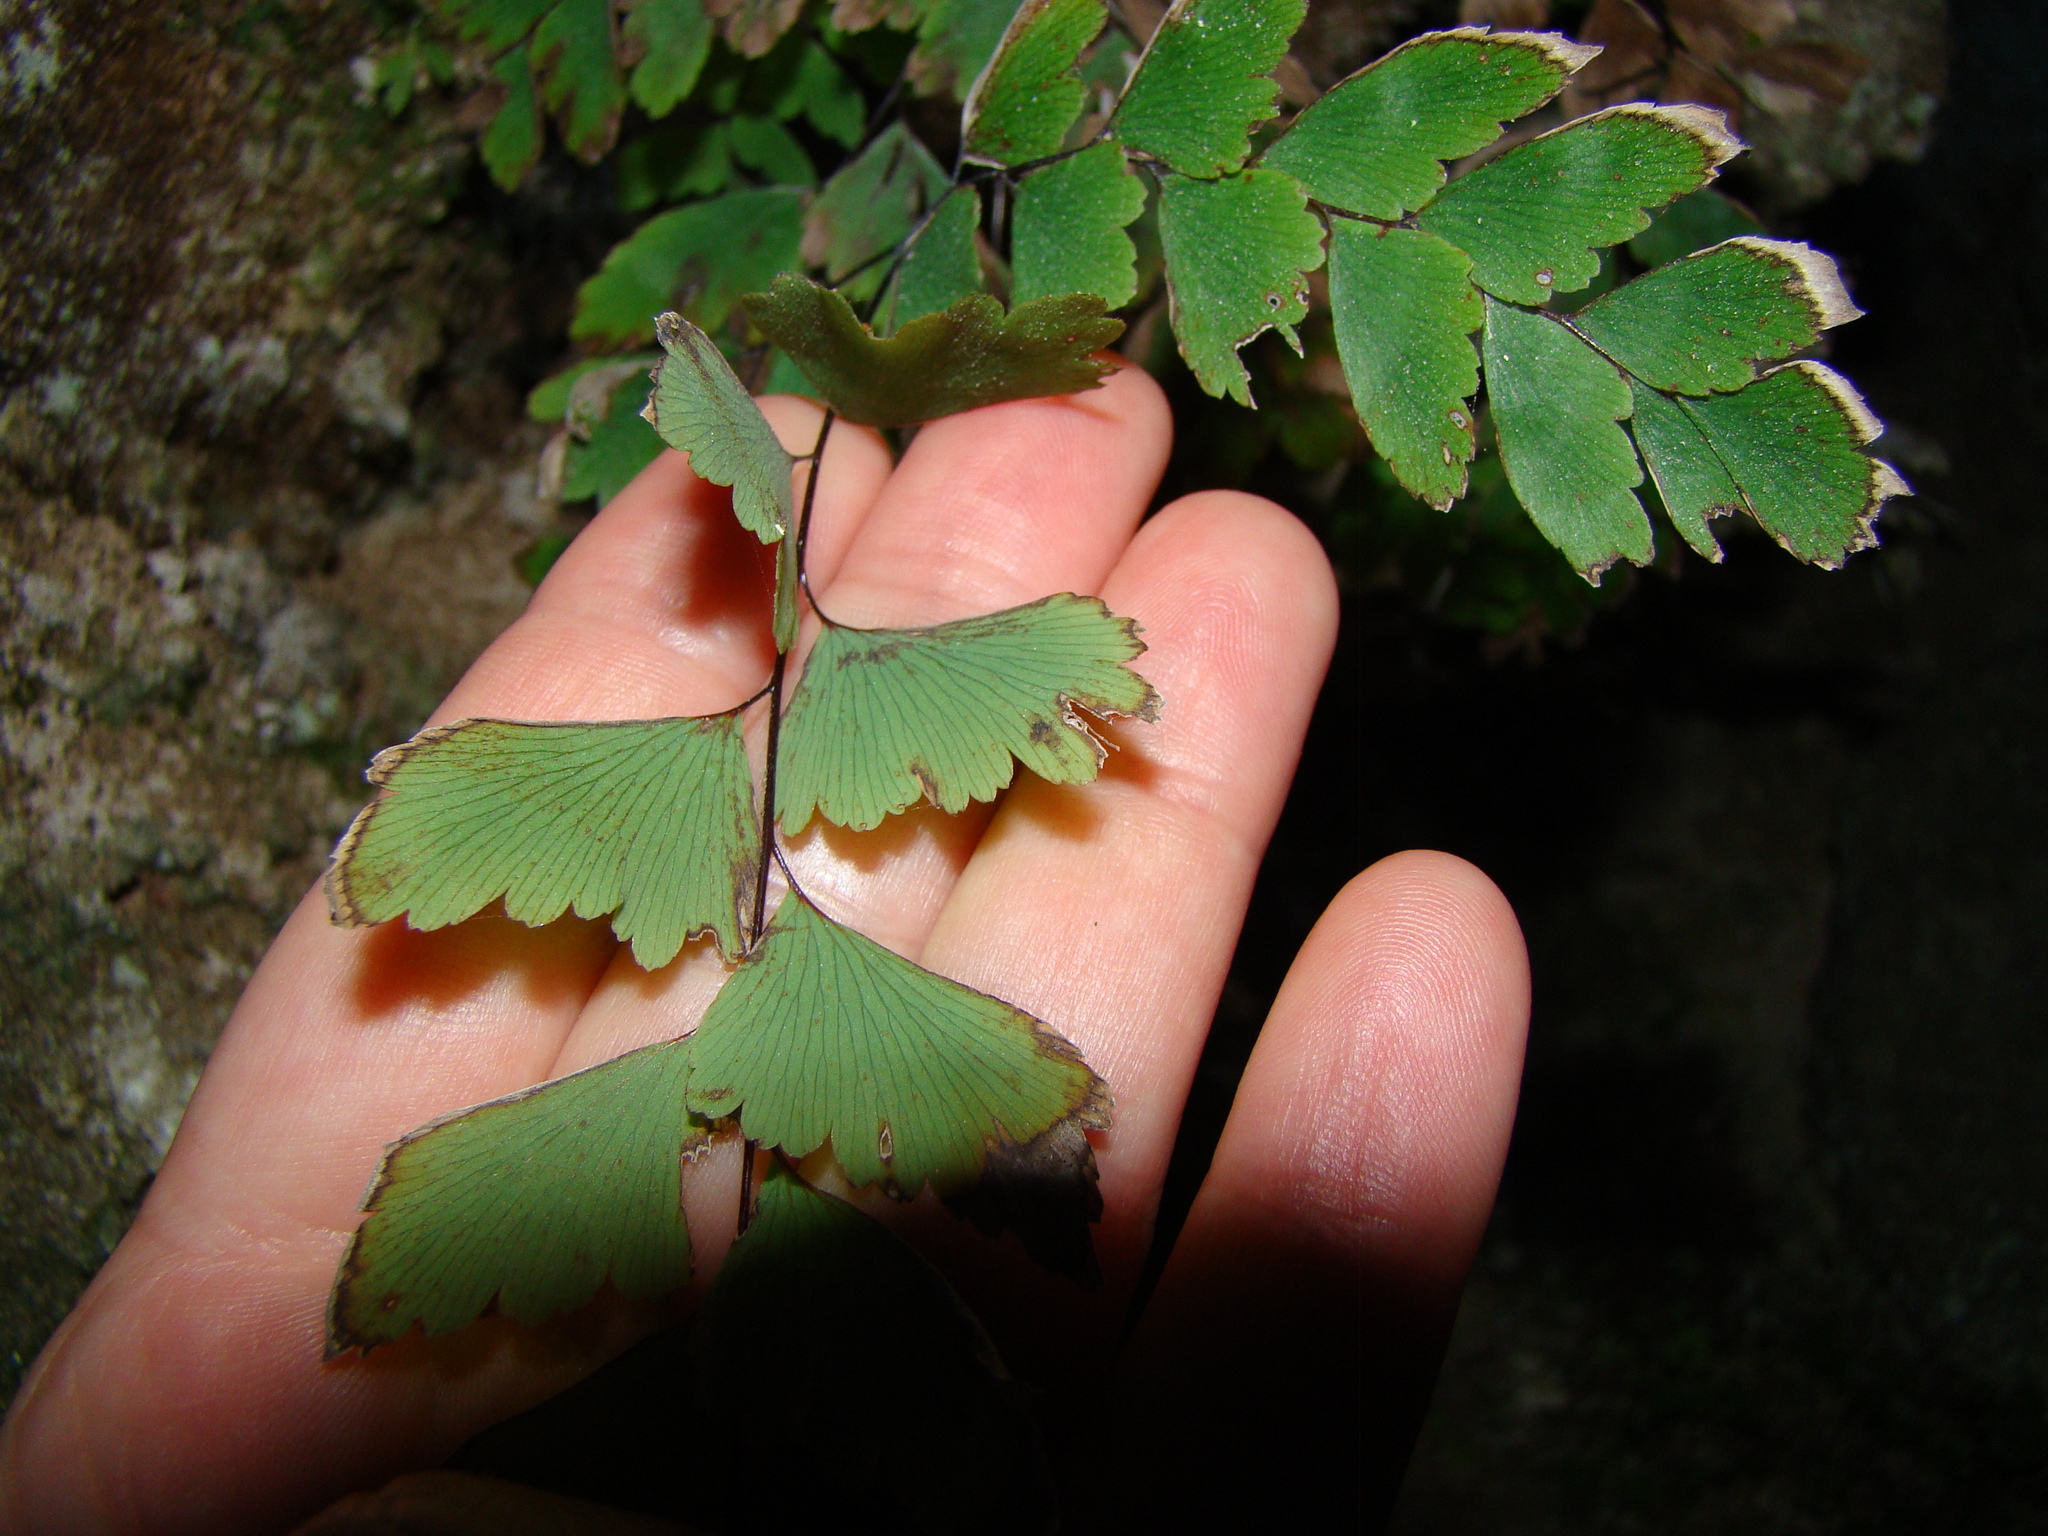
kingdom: Plantae
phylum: Tracheophyta
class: Polypodiopsida
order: Polypodiales
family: Pteridaceae
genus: Adiantum
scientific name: Adiantum cunninghamii
